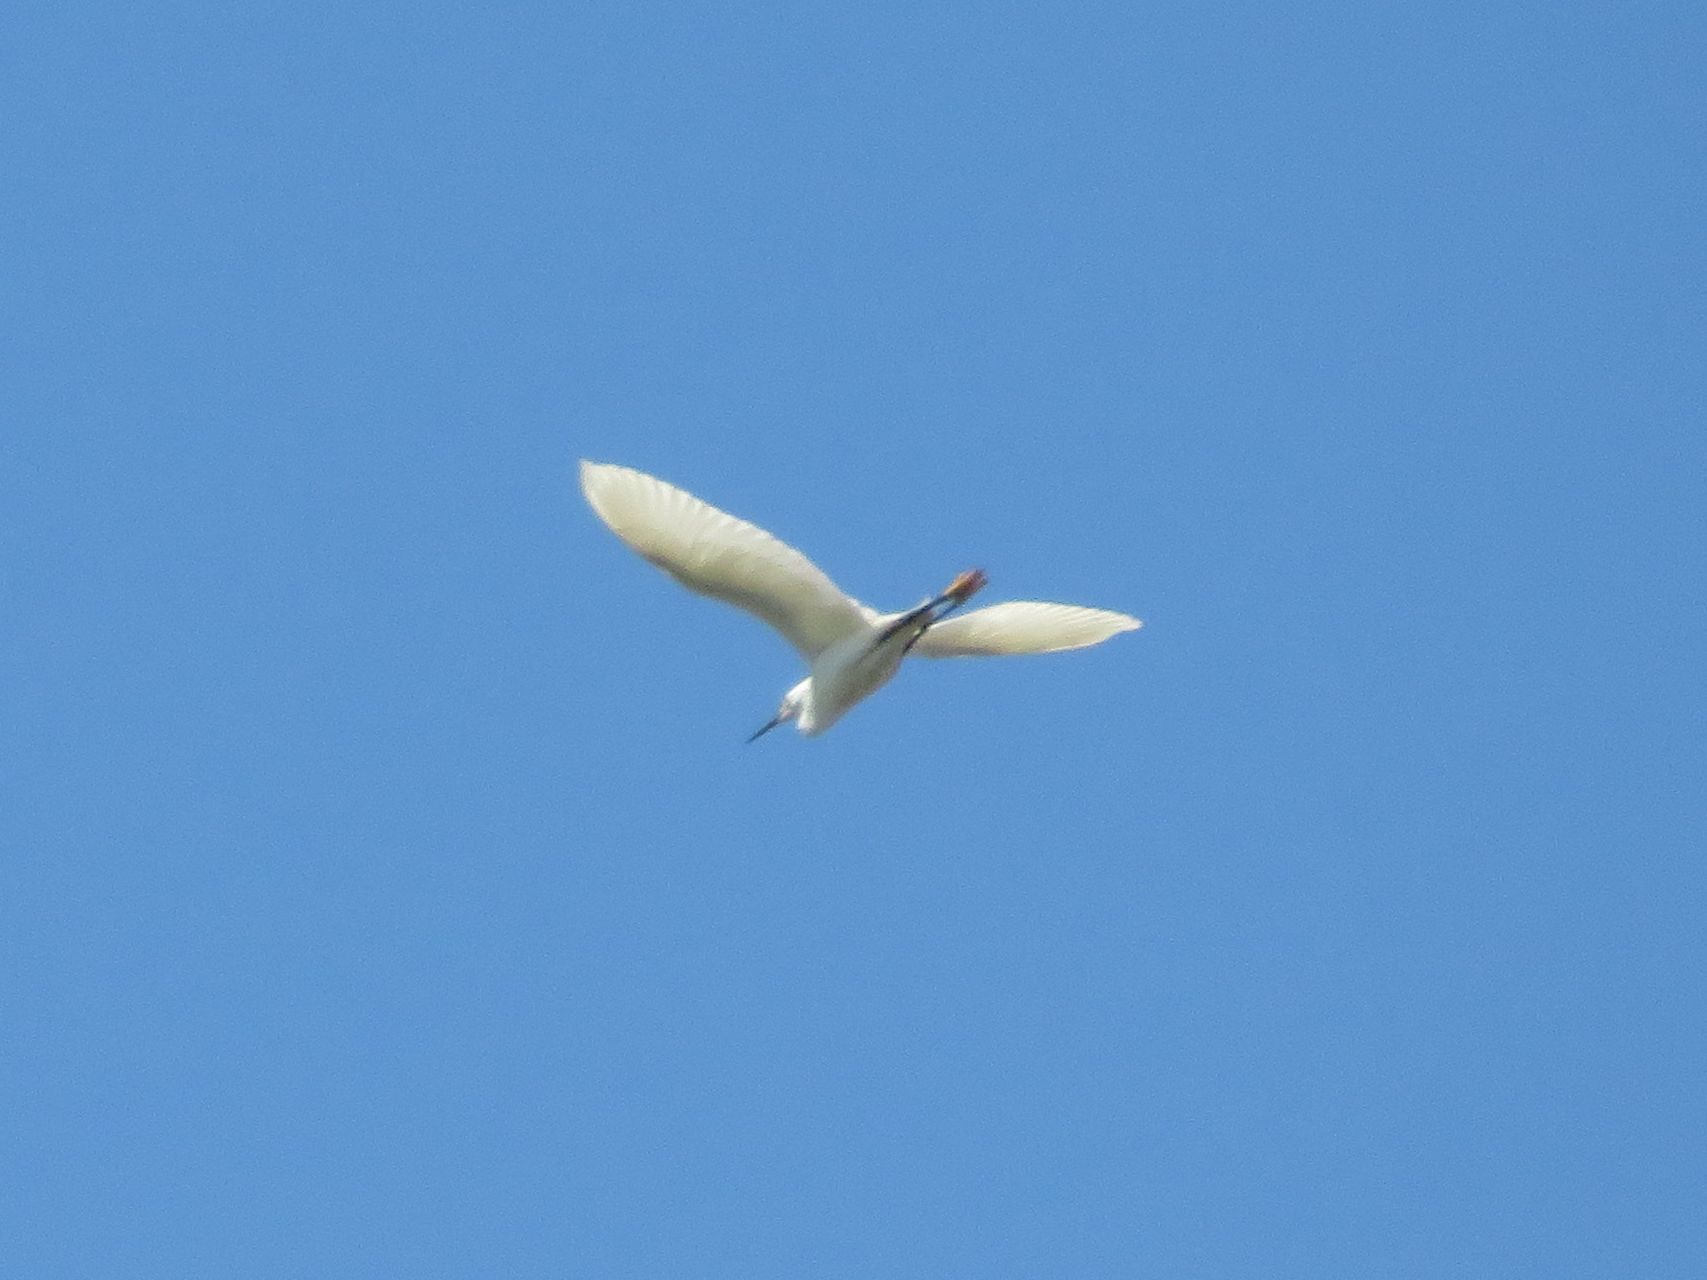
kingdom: Animalia
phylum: Chordata
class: Aves
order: Pelecaniformes
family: Ardeidae
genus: Egretta
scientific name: Egretta thula
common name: Snowy egret
